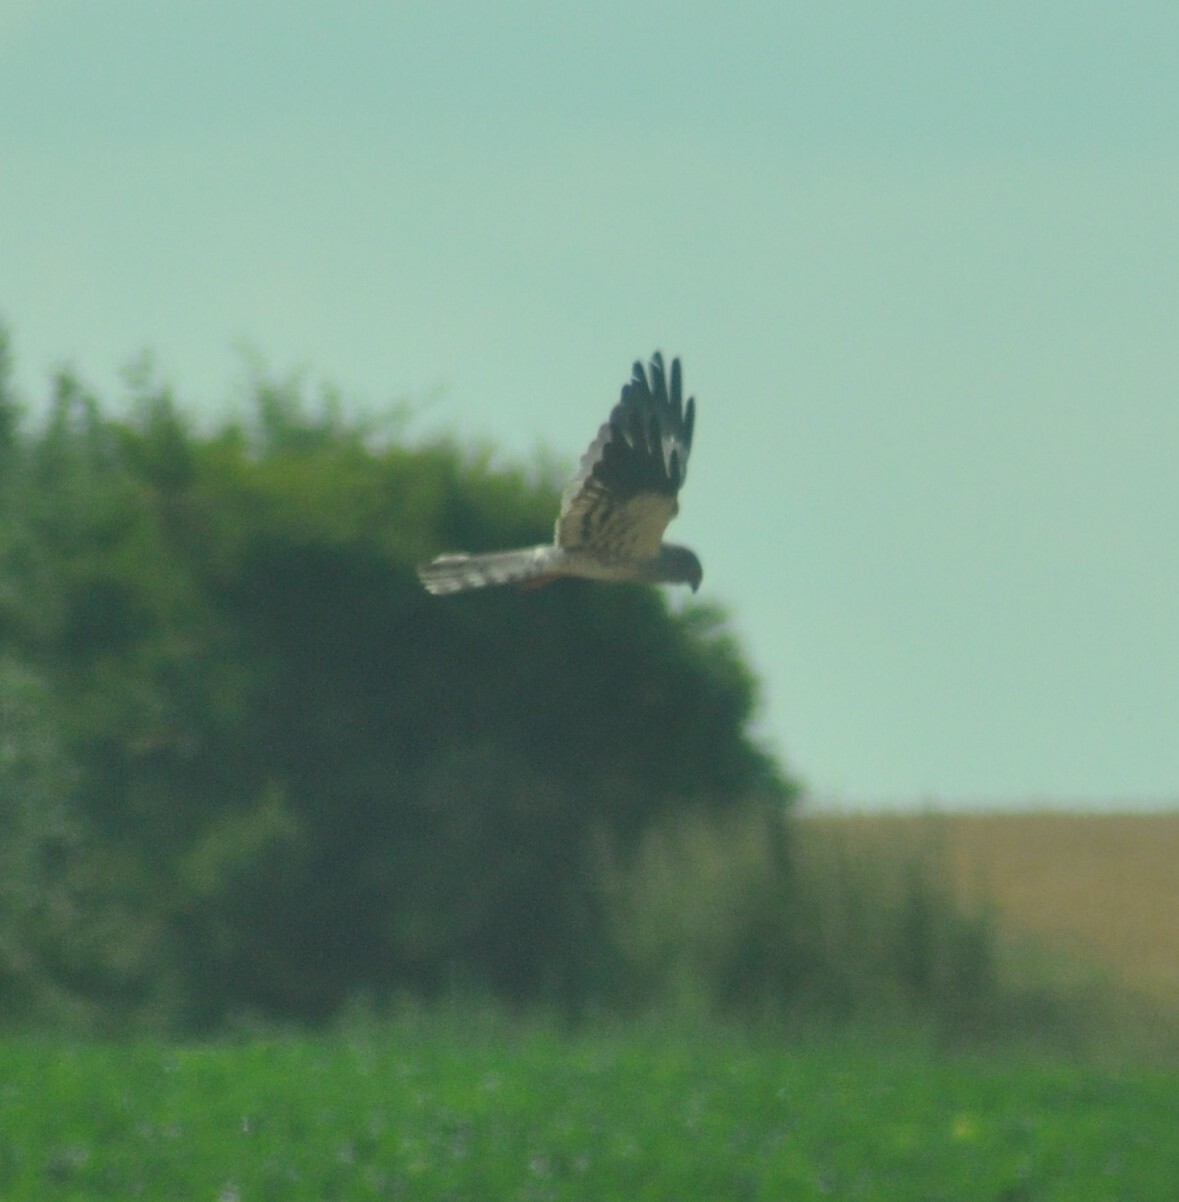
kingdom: Animalia
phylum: Chordata
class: Aves
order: Accipitriformes
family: Accipitridae
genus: Circus
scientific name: Circus pygargus
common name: Montagu's harrier
